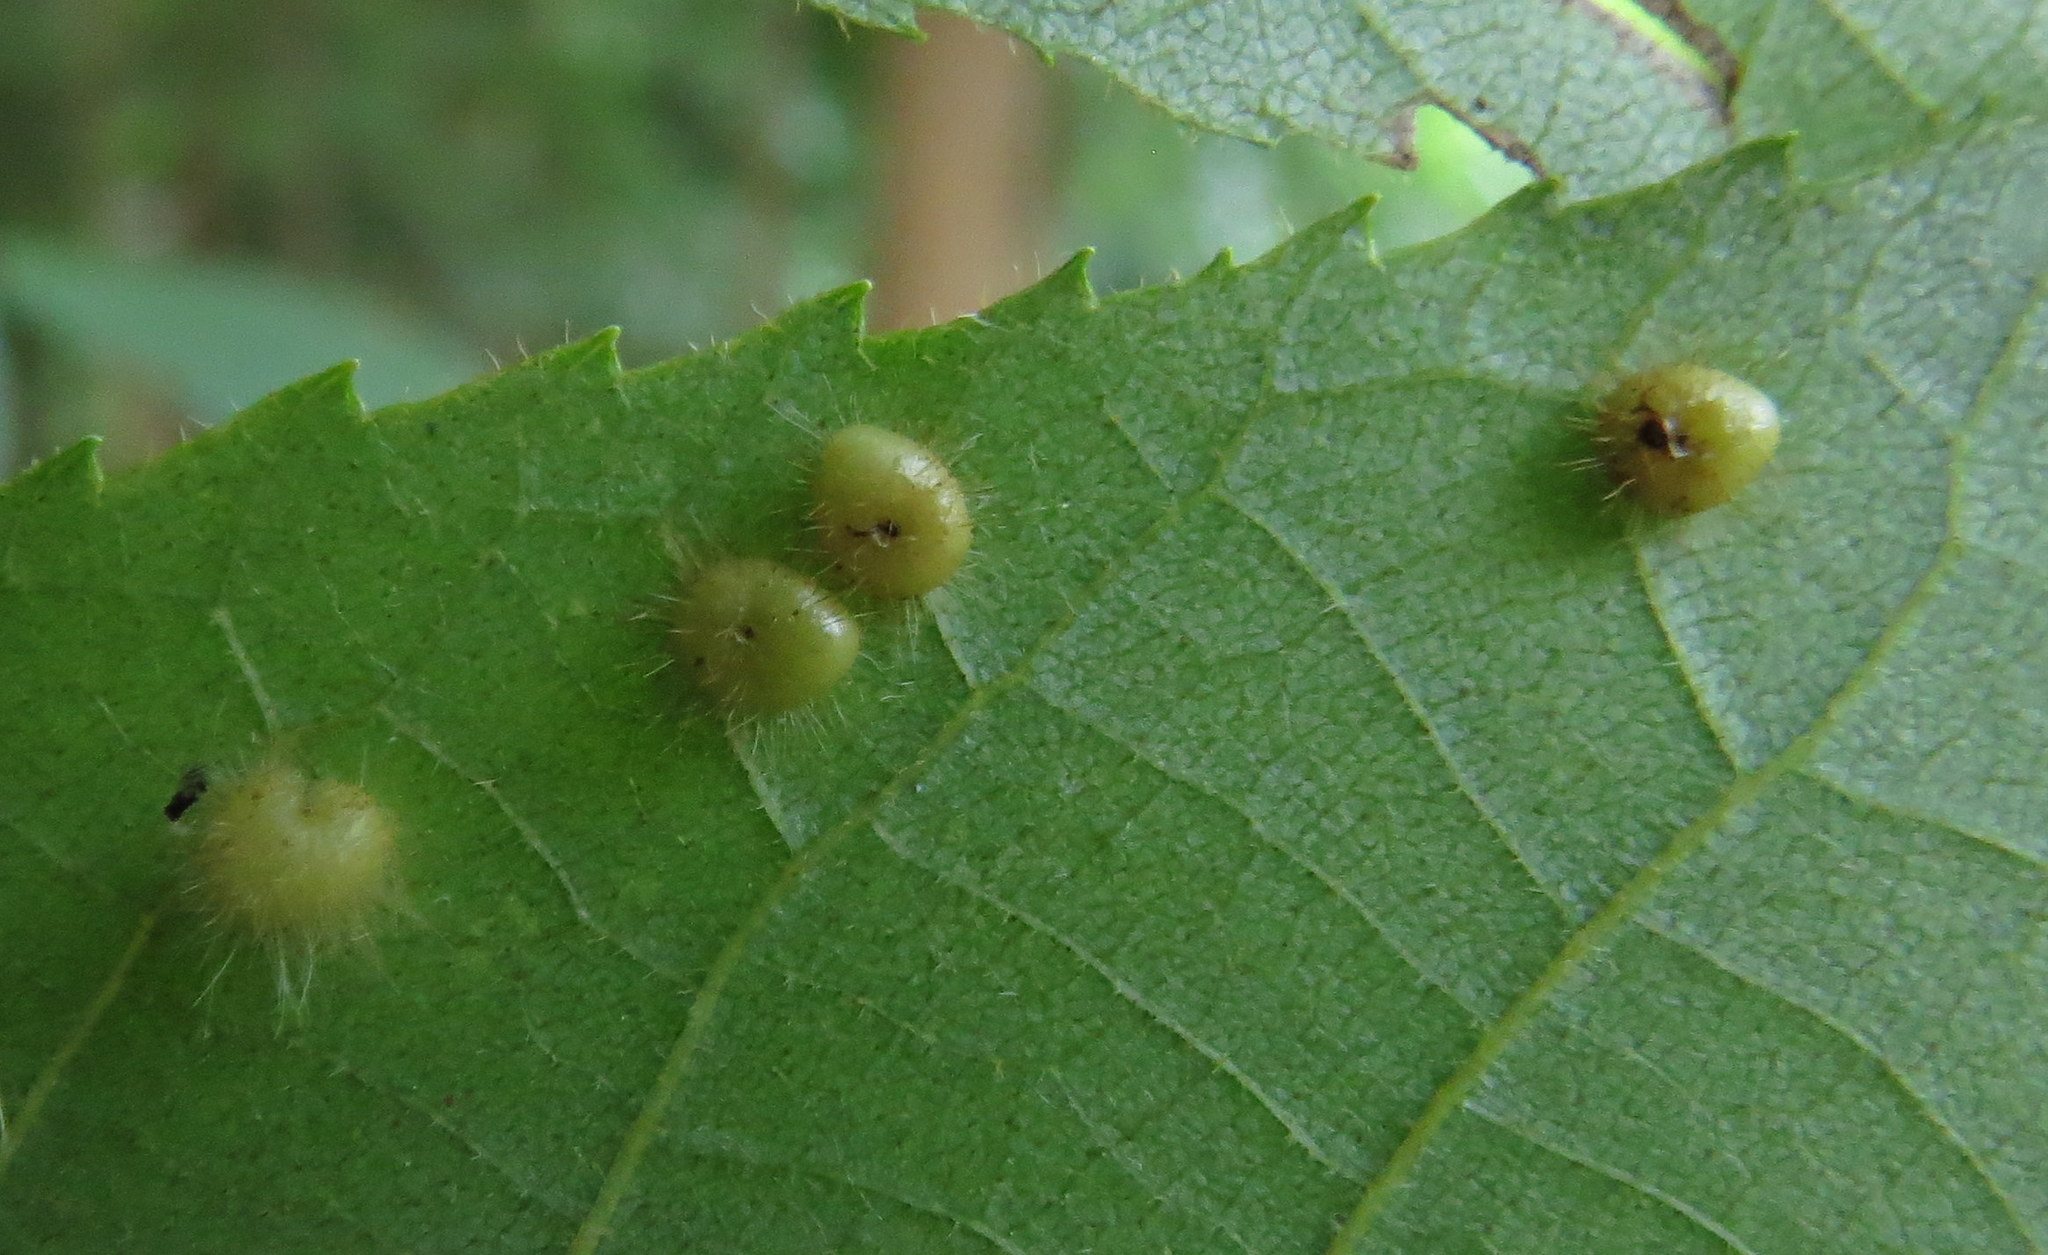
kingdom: Animalia
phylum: Arthropoda
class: Insecta
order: Diptera
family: Cecidomyiidae
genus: Caryomyia
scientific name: Caryomyia thompsoni
